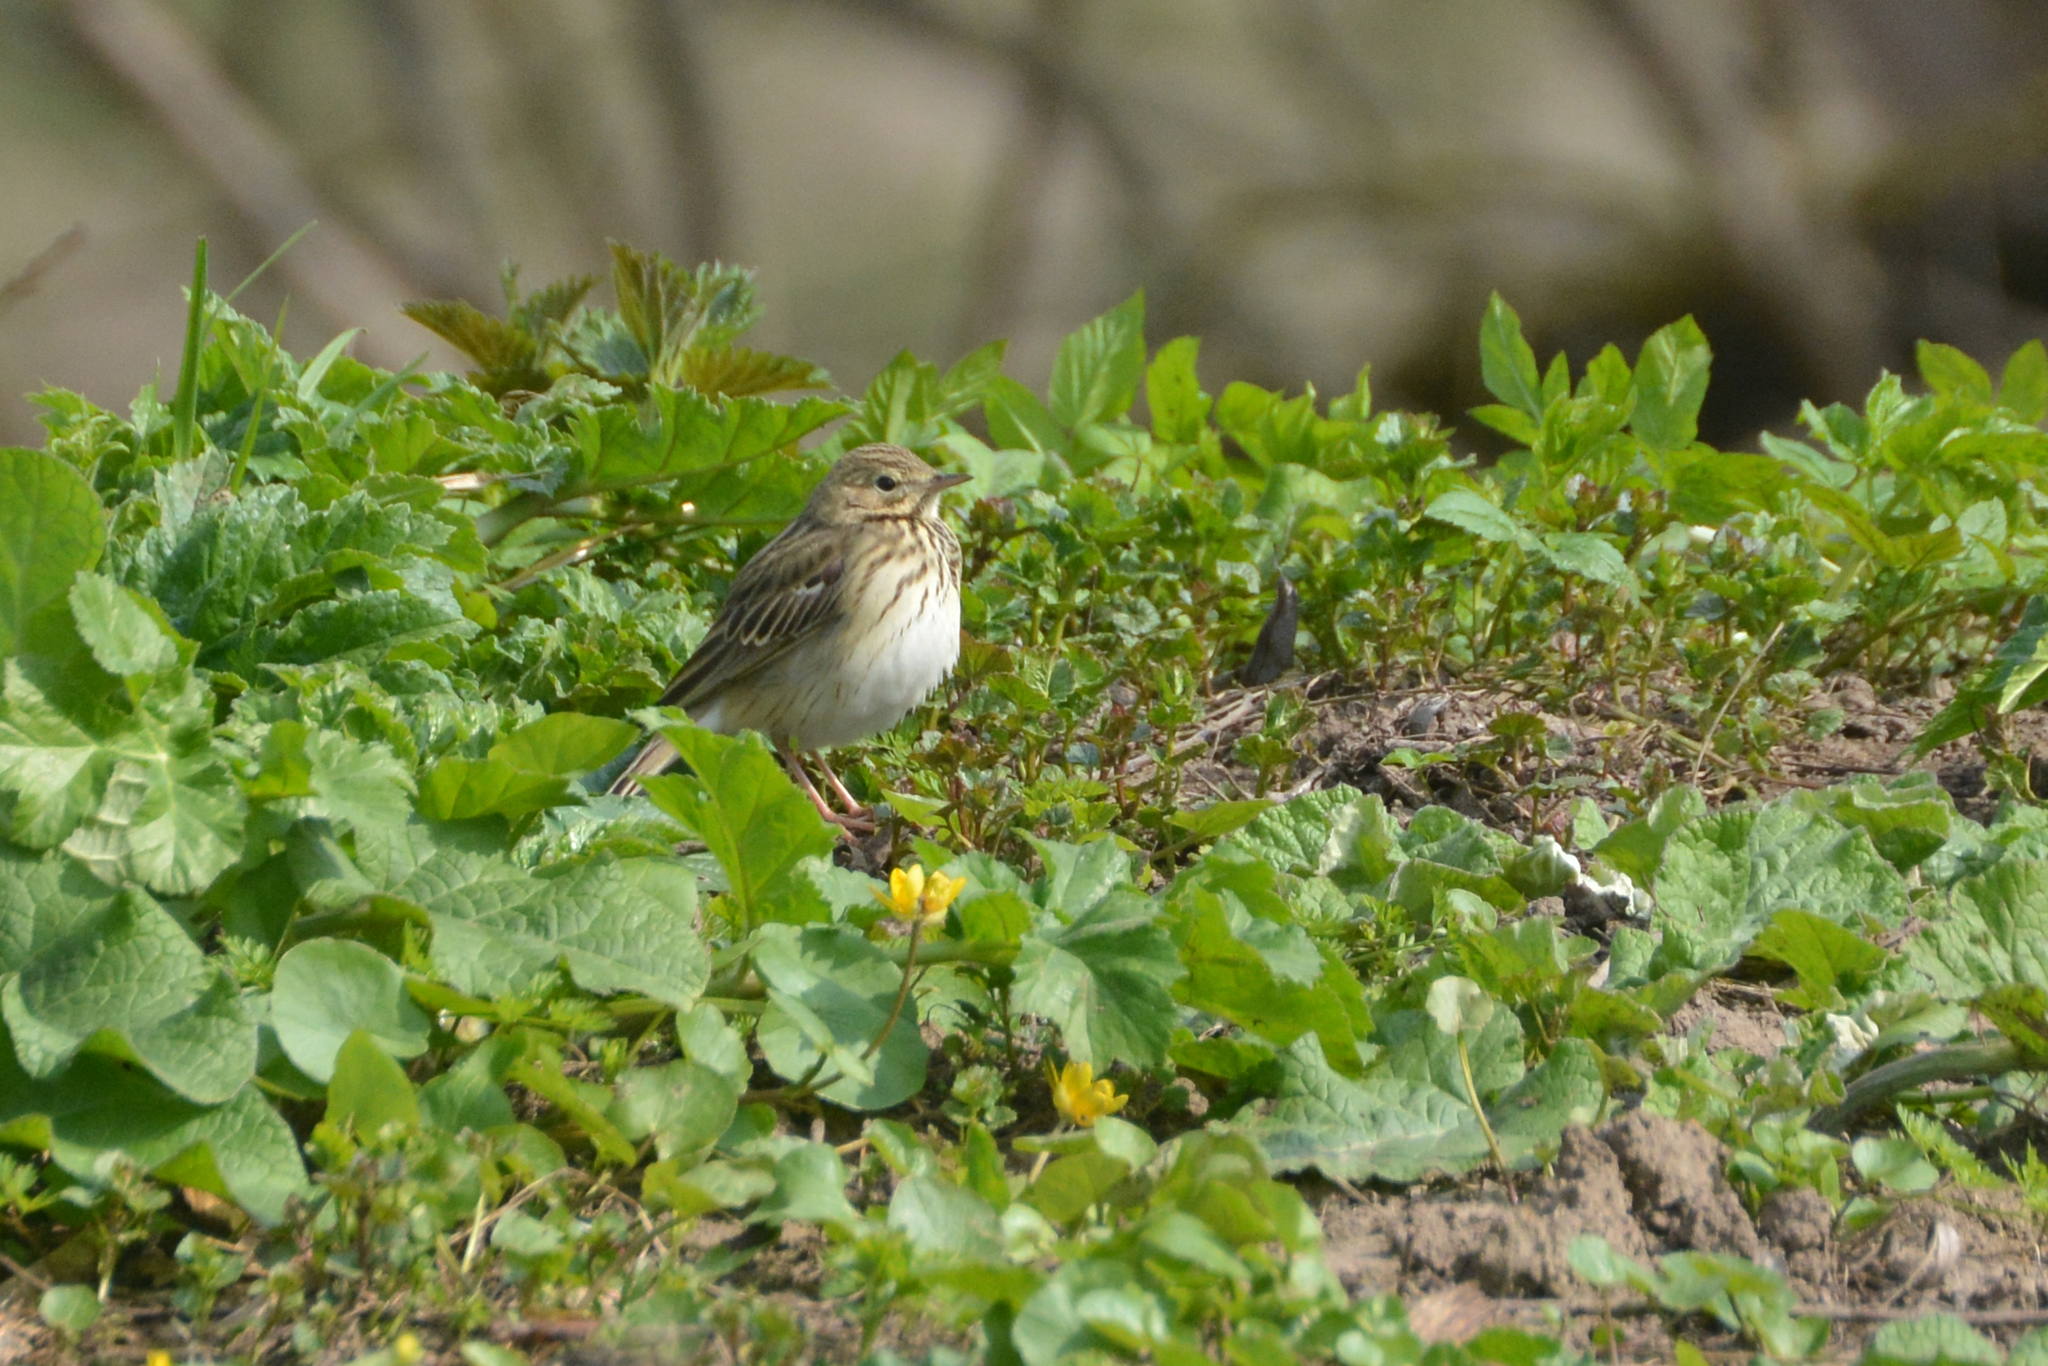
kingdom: Animalia
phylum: Chordata
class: Aves
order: Passeriformes
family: Motacillidae
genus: Anthus
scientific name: Anthus trivialis
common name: Tree pipit
